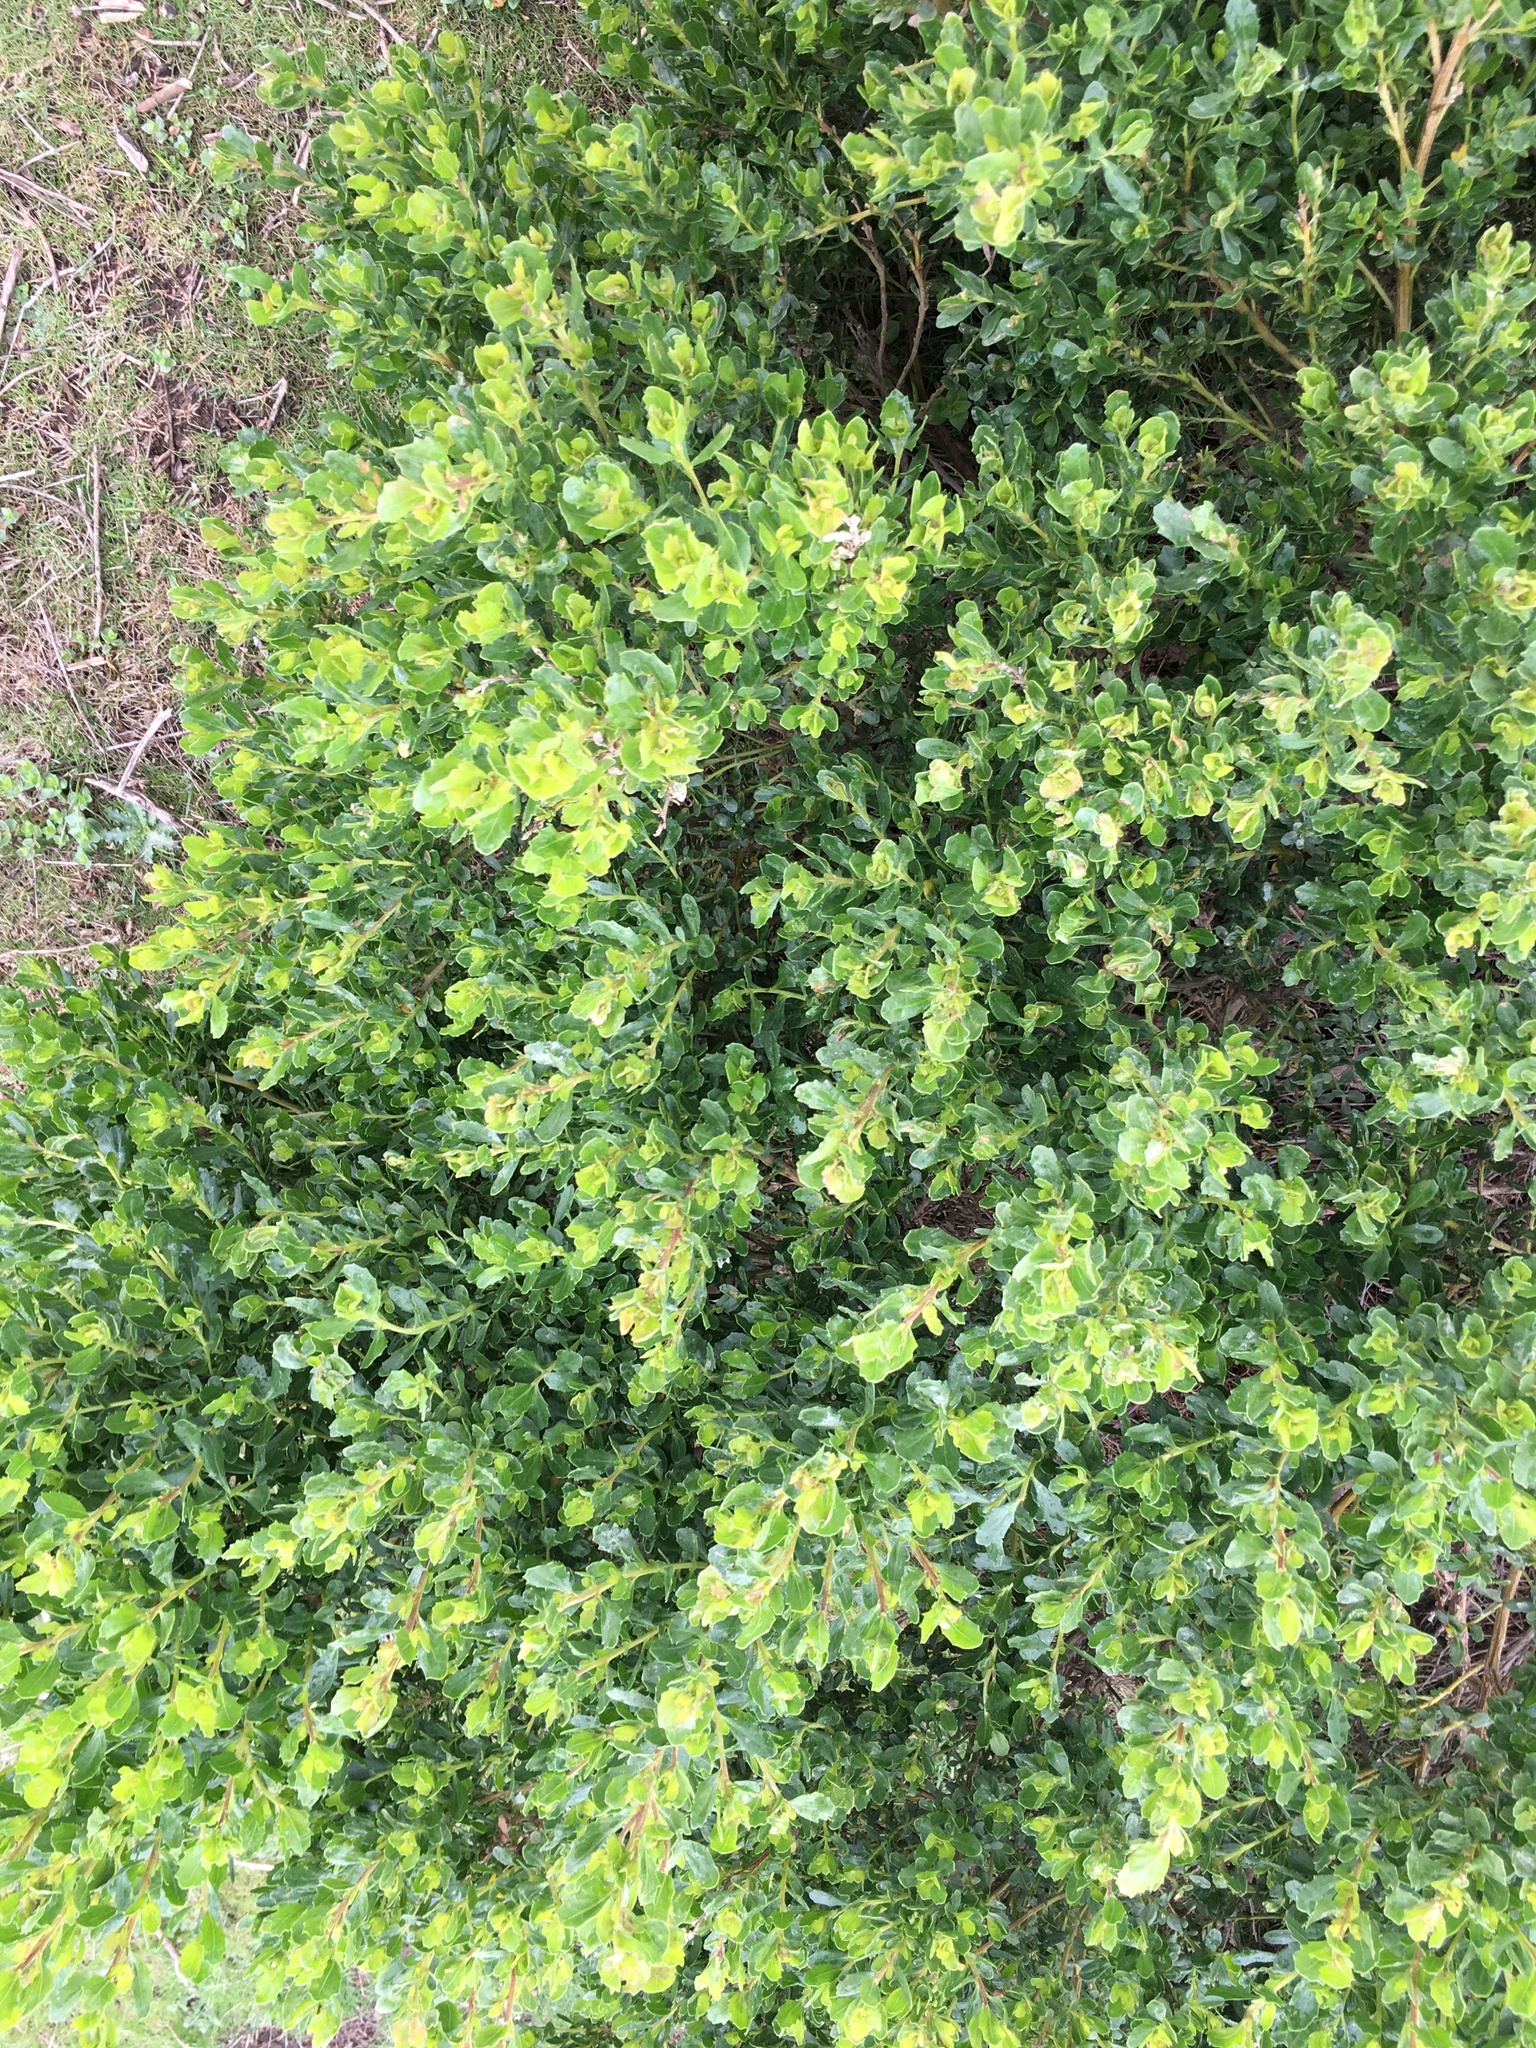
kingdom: Plantae
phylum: Tracheophyta
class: Magnoliopsida
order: Asterales
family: Asteraceae
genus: Baccharis
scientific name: Baccharis pilularis
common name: Coyotebrush
